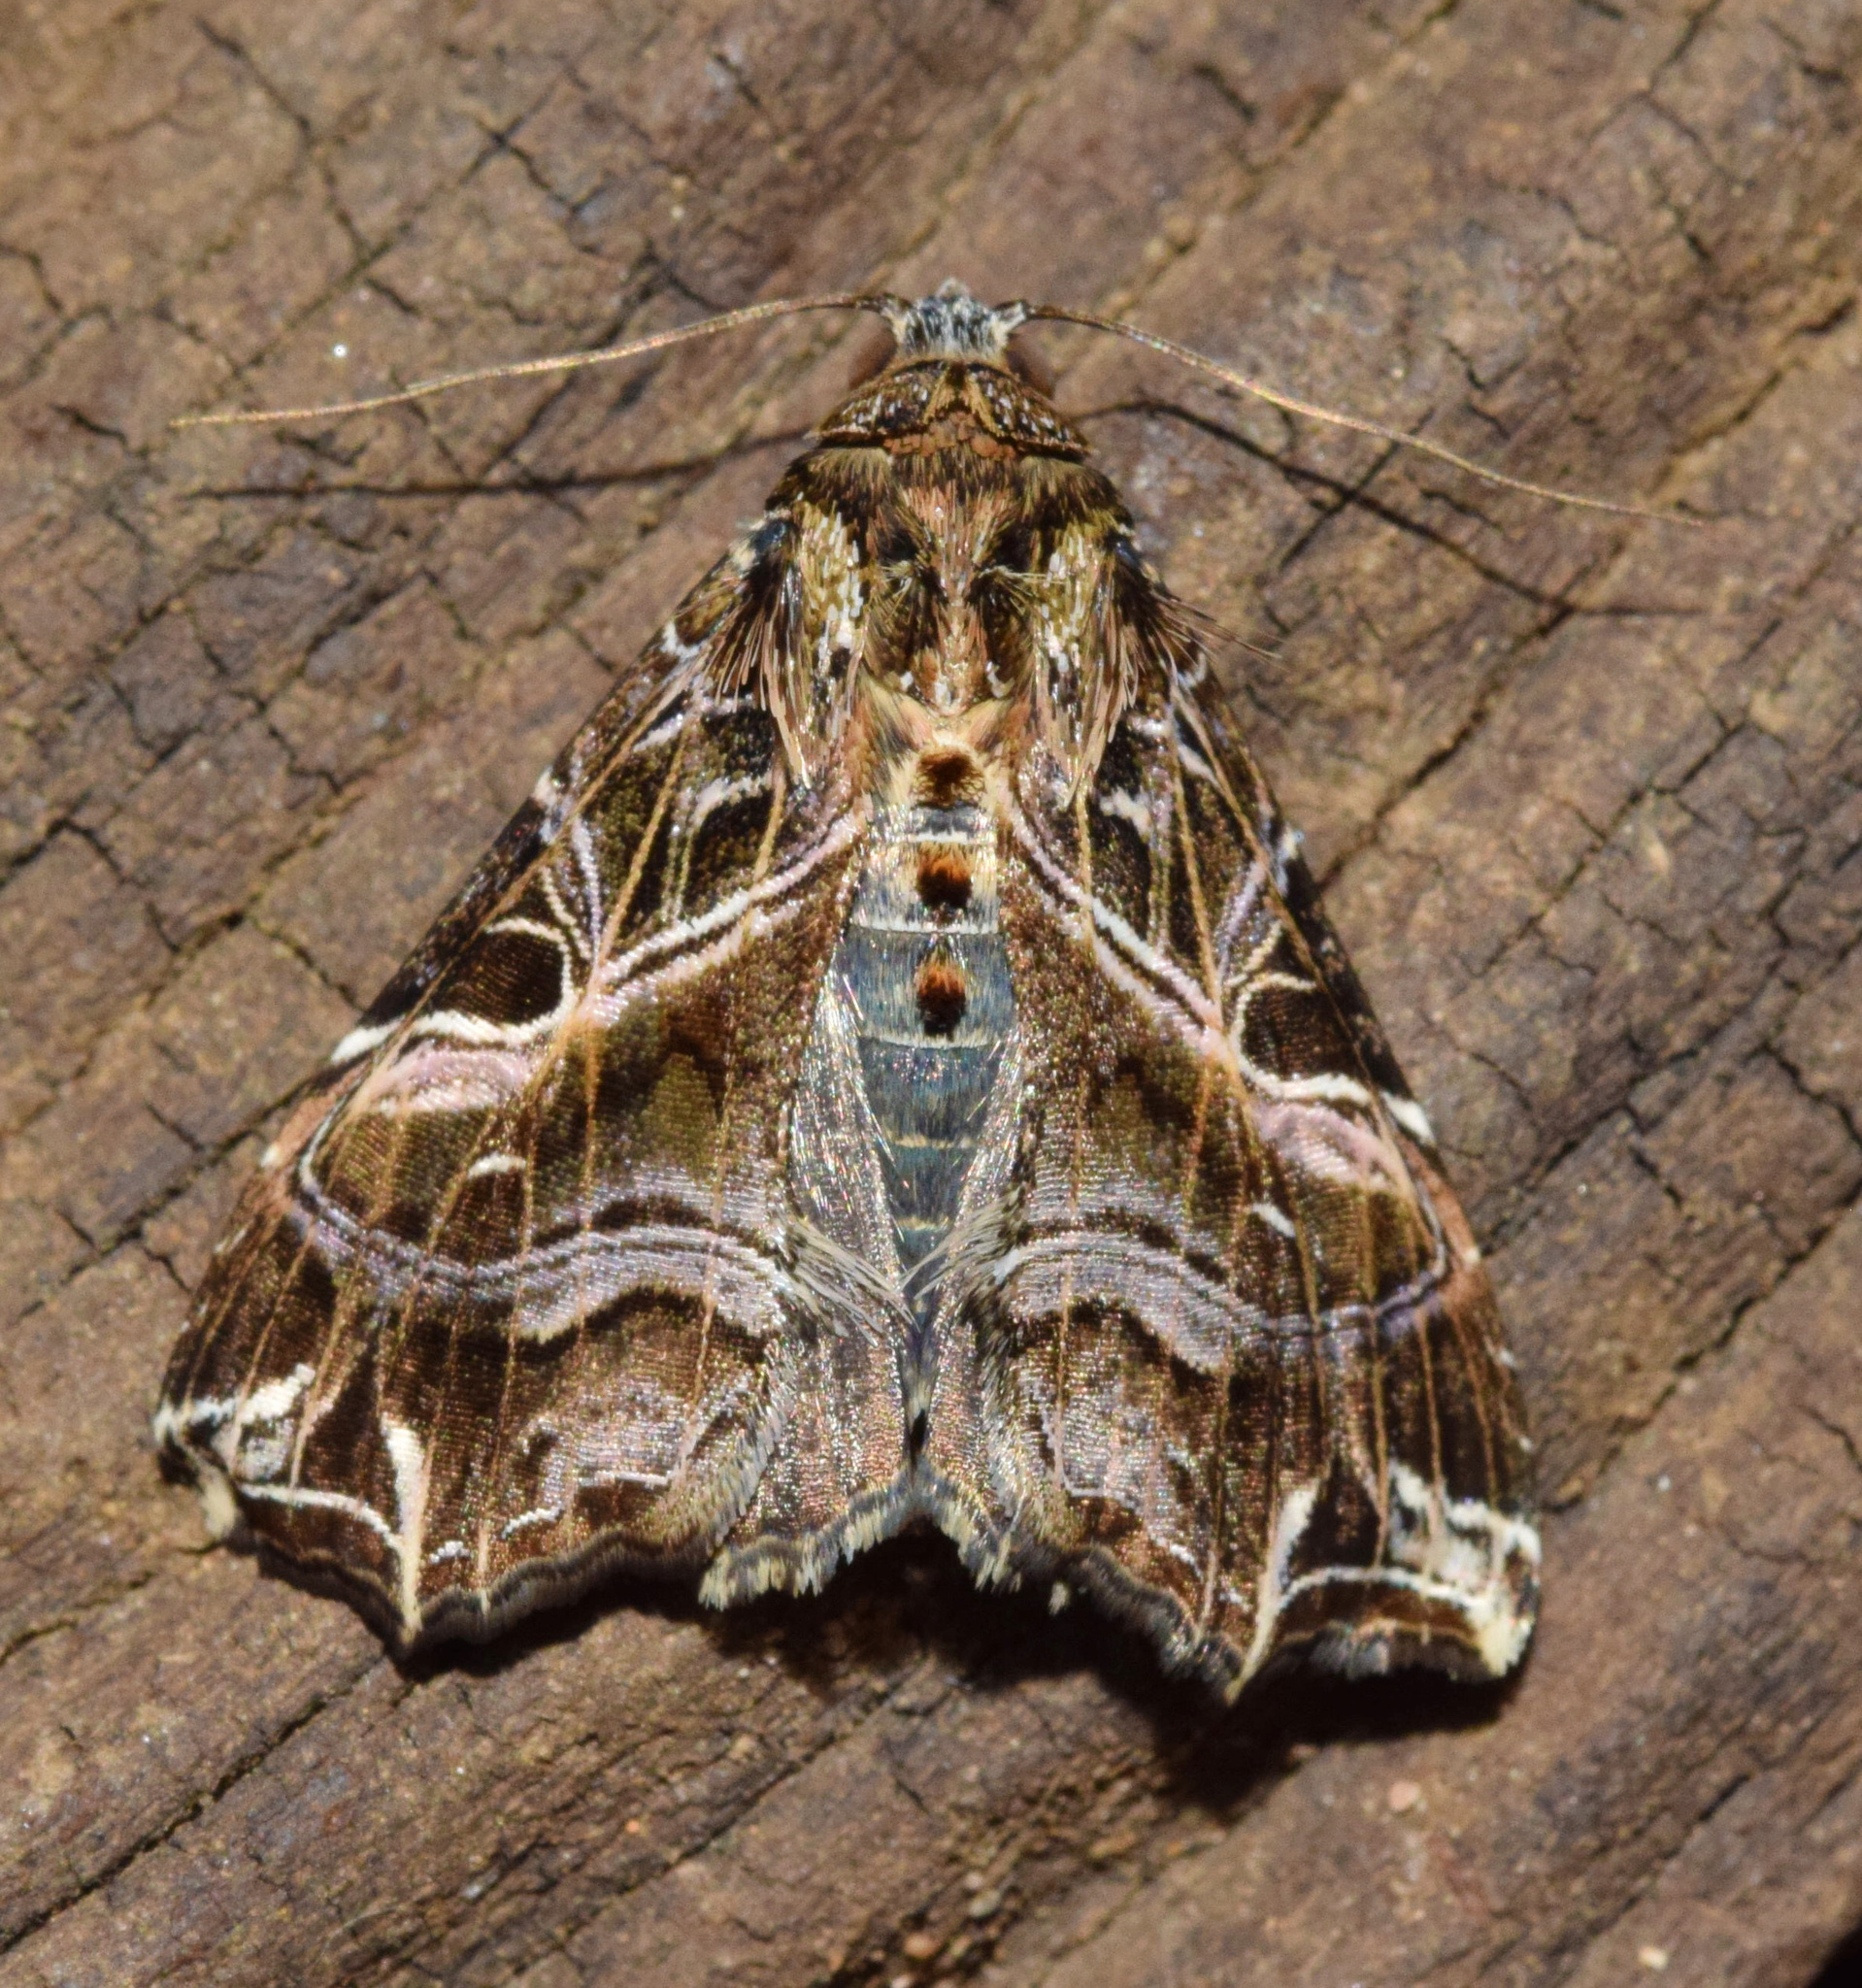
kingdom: Animalia
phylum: Arthropoda
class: Insecta
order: Lepidoptera
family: Noctuidae
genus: Callopistria
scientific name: Callopistria maillardi
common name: Cutworm
